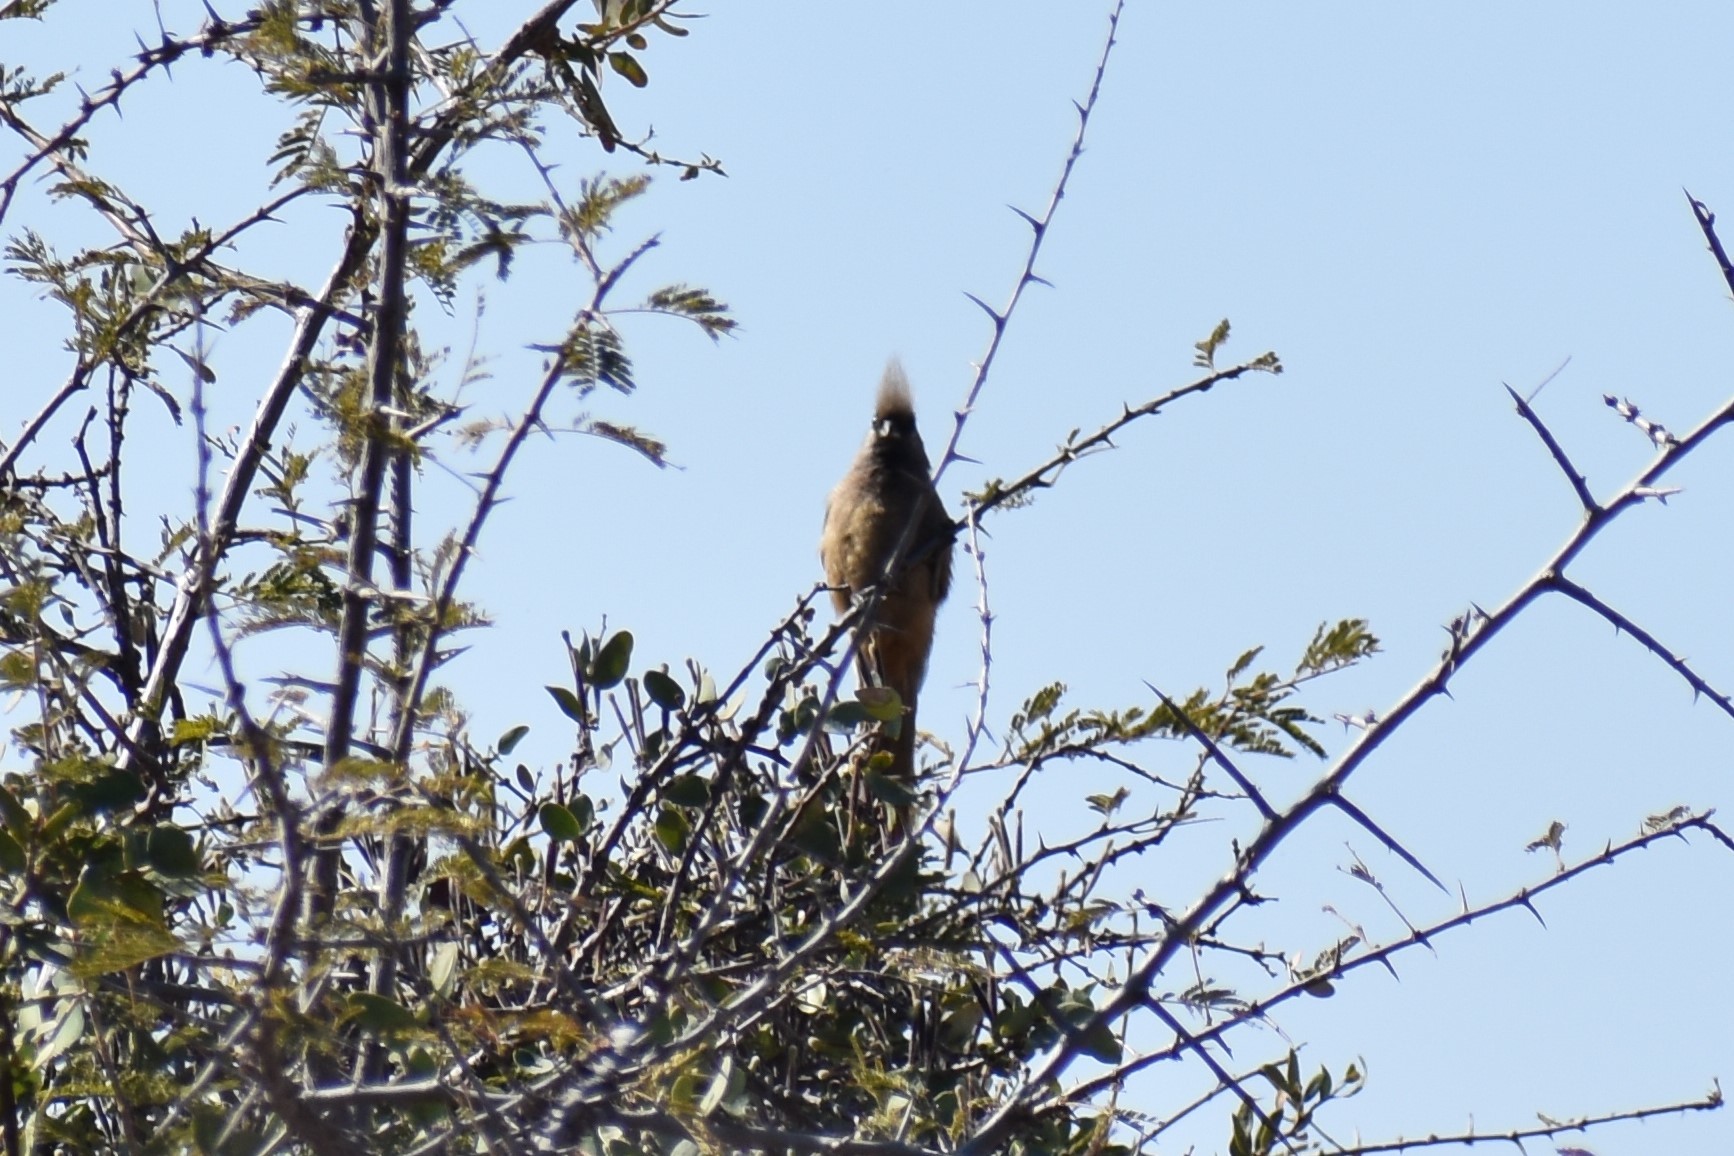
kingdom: Animalia
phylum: Chordata
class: Aves
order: Coliiformes
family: Coliidae
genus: Colius
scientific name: Colius striatus
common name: Speckled mousebird
